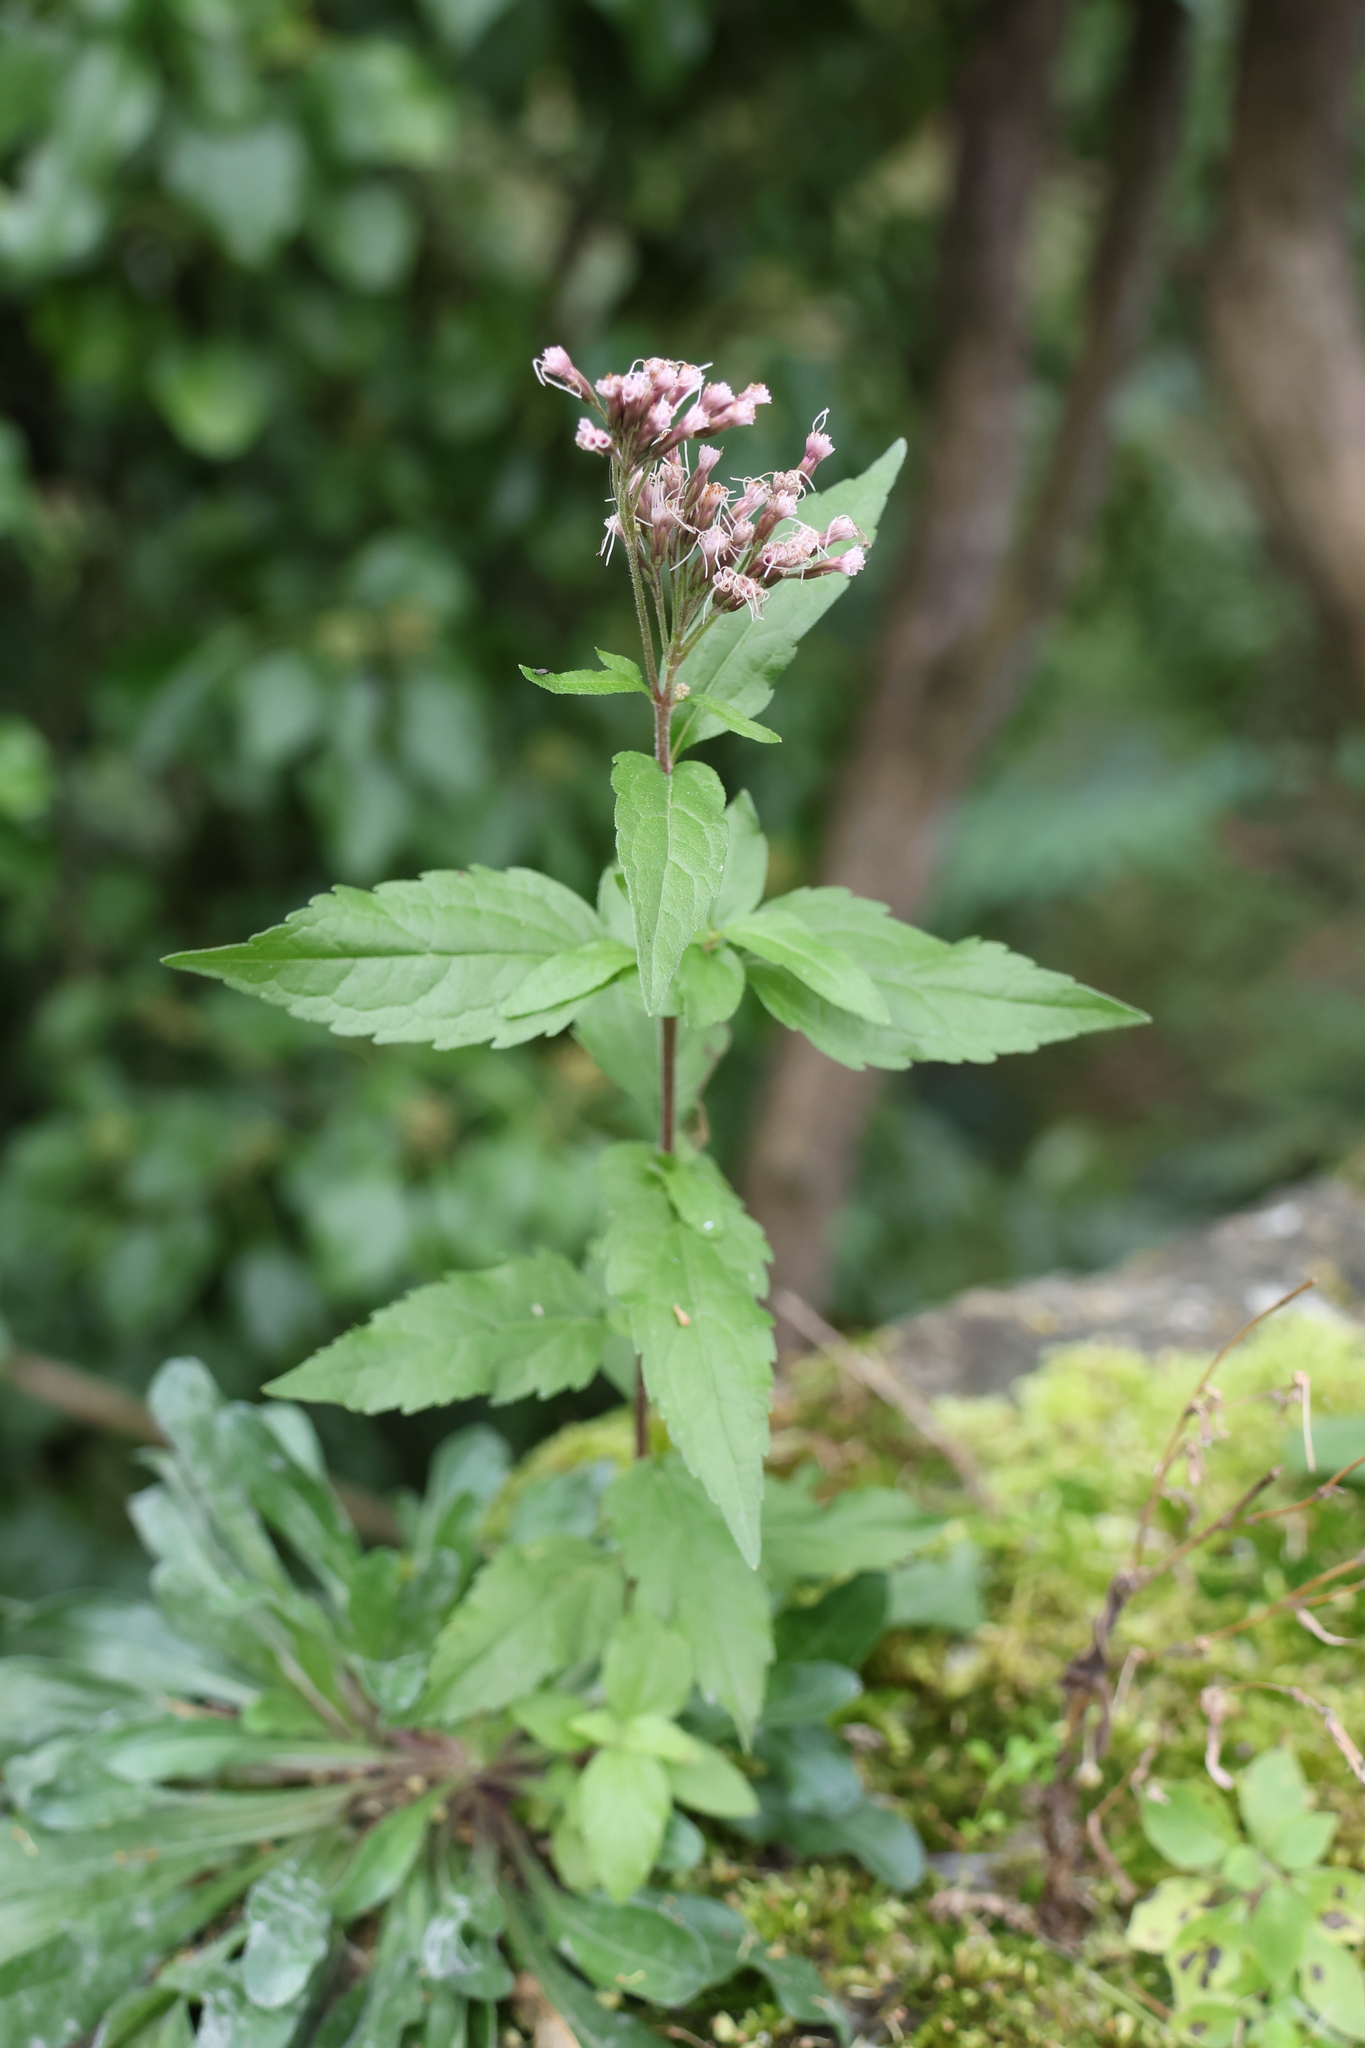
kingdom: Plantae
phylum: Tracheophyta
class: Magnoliopsida
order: Asterales
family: Asteraceae
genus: Eupatorium
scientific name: Eupatorium cannabinum
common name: Hemp-agrimony
